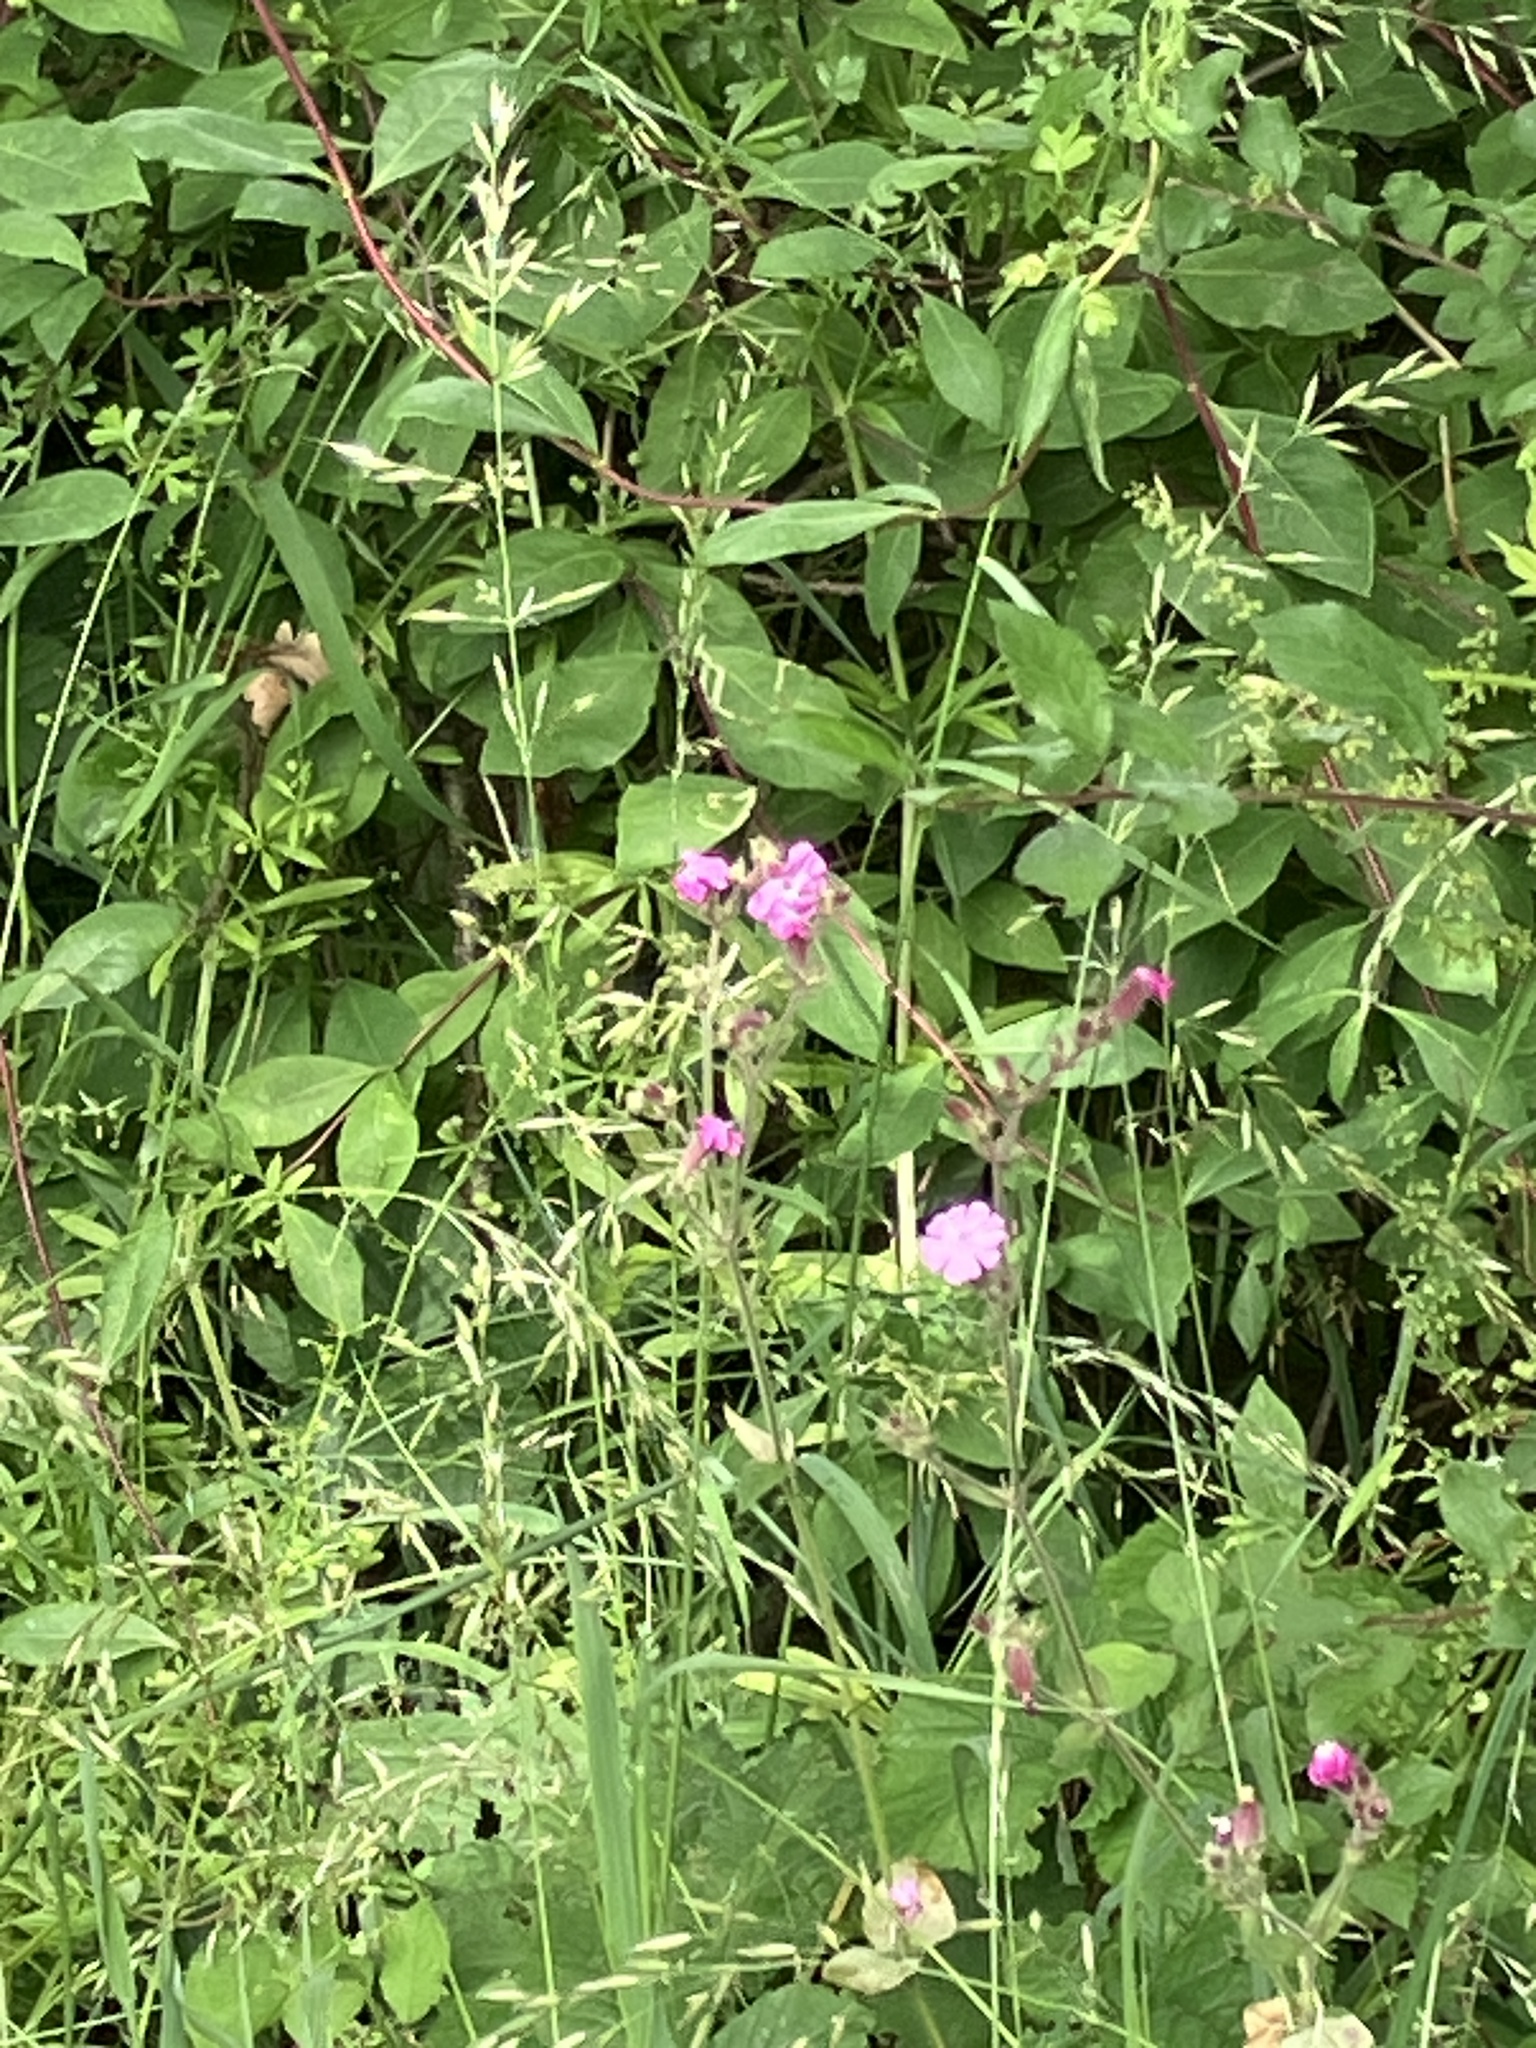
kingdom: Plantae
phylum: Tracheophyta
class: Magnoliopsida
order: Caryophyllales
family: Caryophyllaceae
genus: Silene
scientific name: Silene dioica
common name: Red campion
